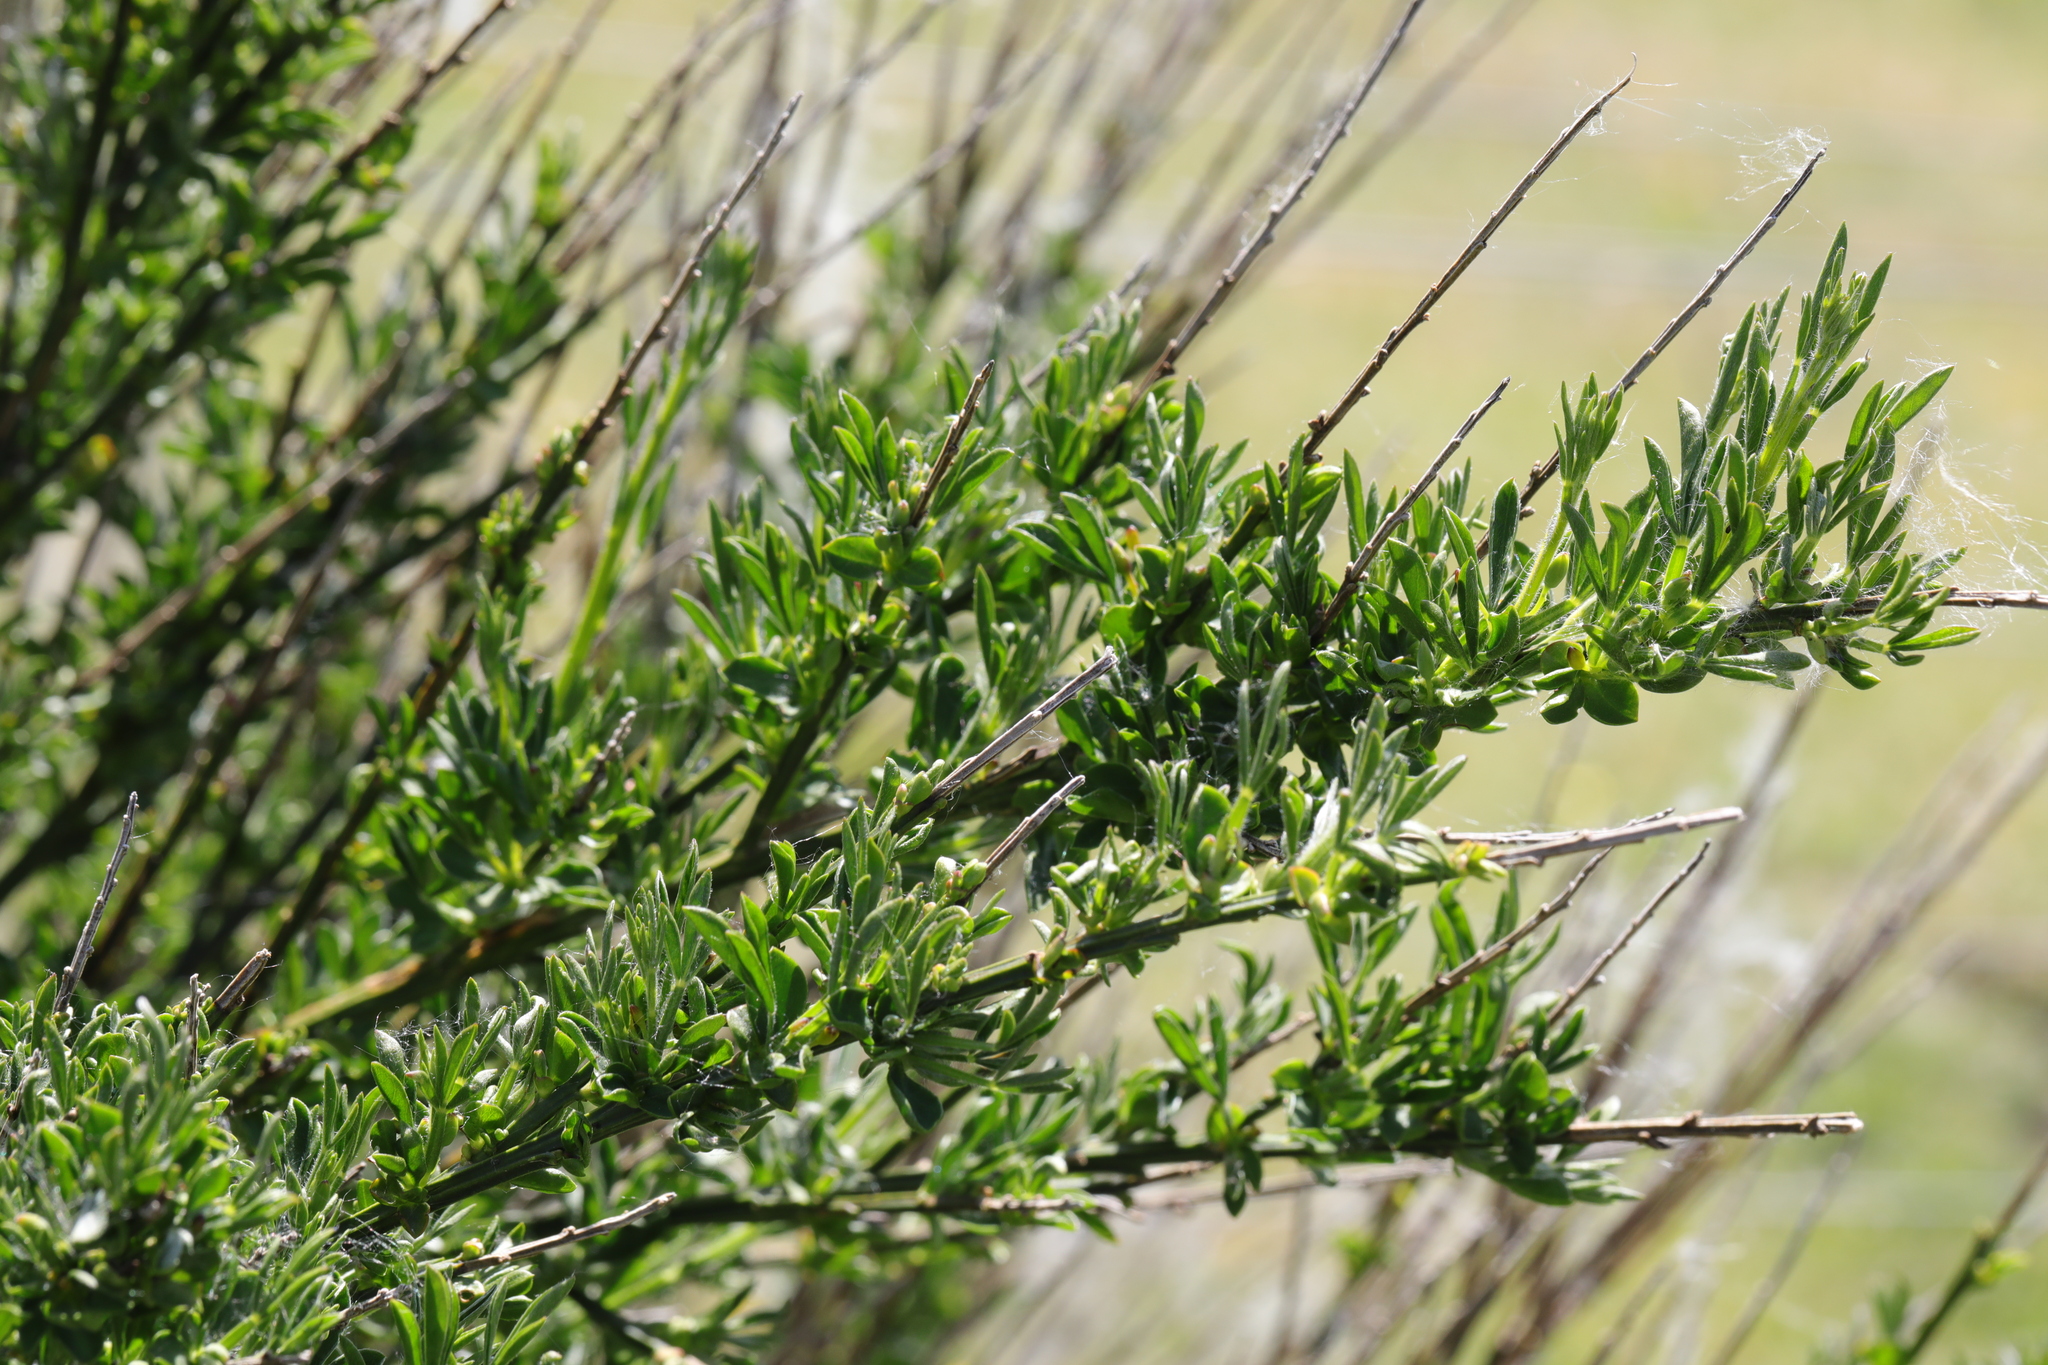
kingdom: Plantae
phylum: Tracheophyta
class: Magnoliopsida
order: Fabales
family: Fabaceae
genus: Cytisus
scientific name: Cytisus scoparius
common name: Scotch broom
